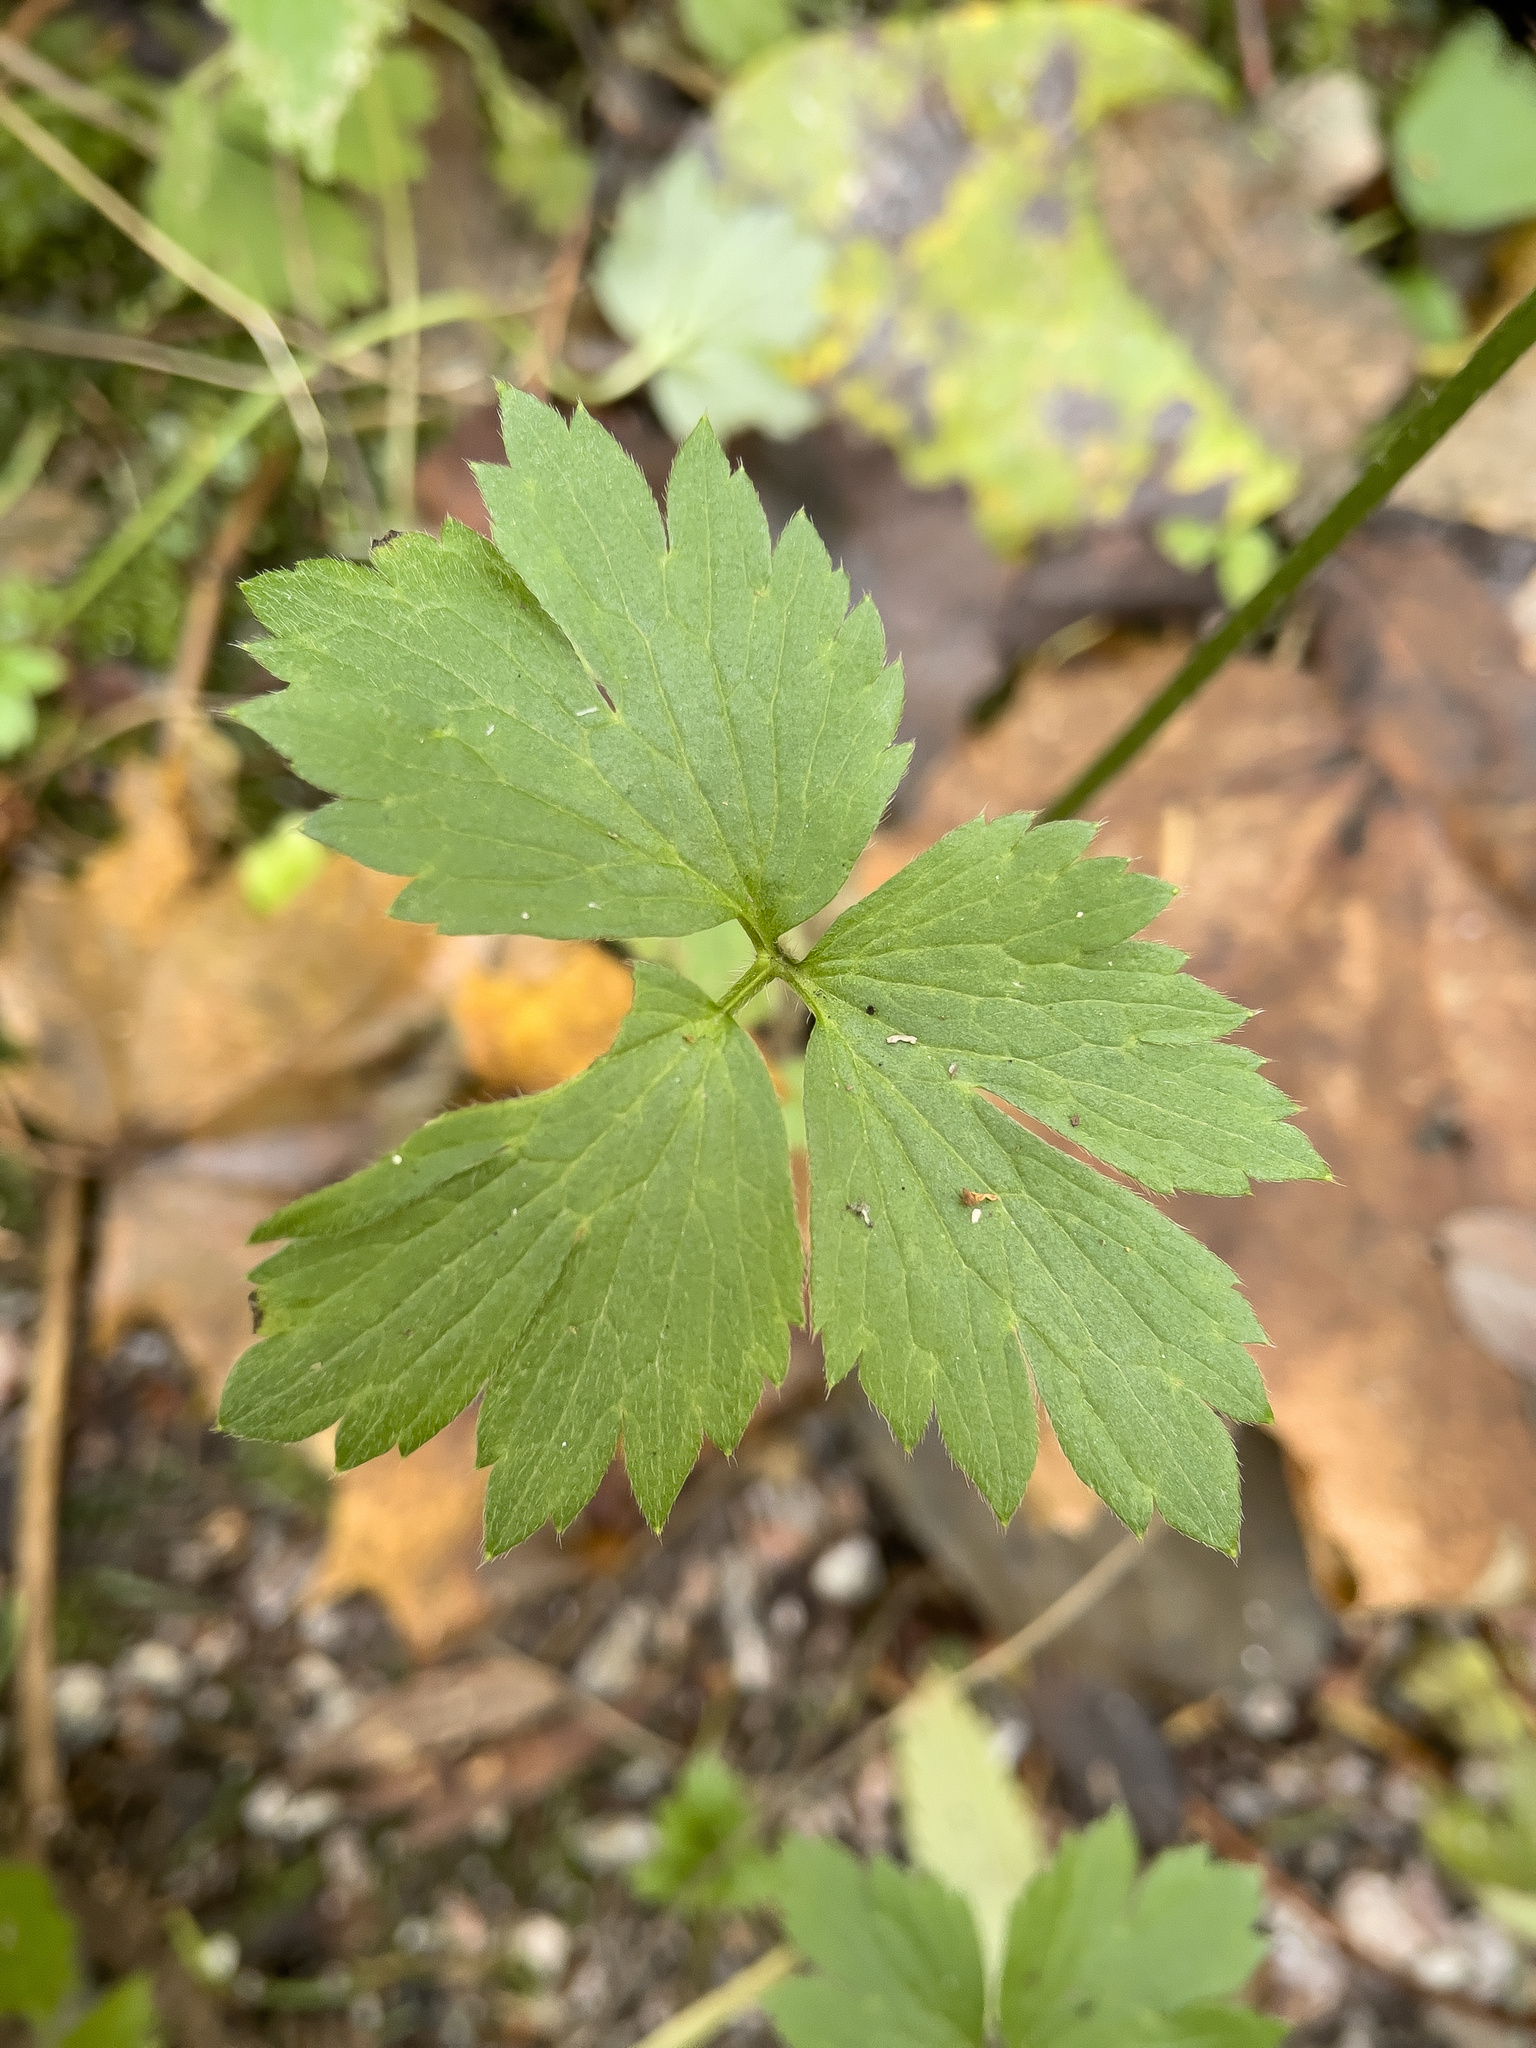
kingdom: Plantae
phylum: Tracheophyta
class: Magnoliopsida
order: Ranunculales
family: Ranunculaceae
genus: Ranunculus
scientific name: Ranunculus repens
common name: Creeping buttercup
